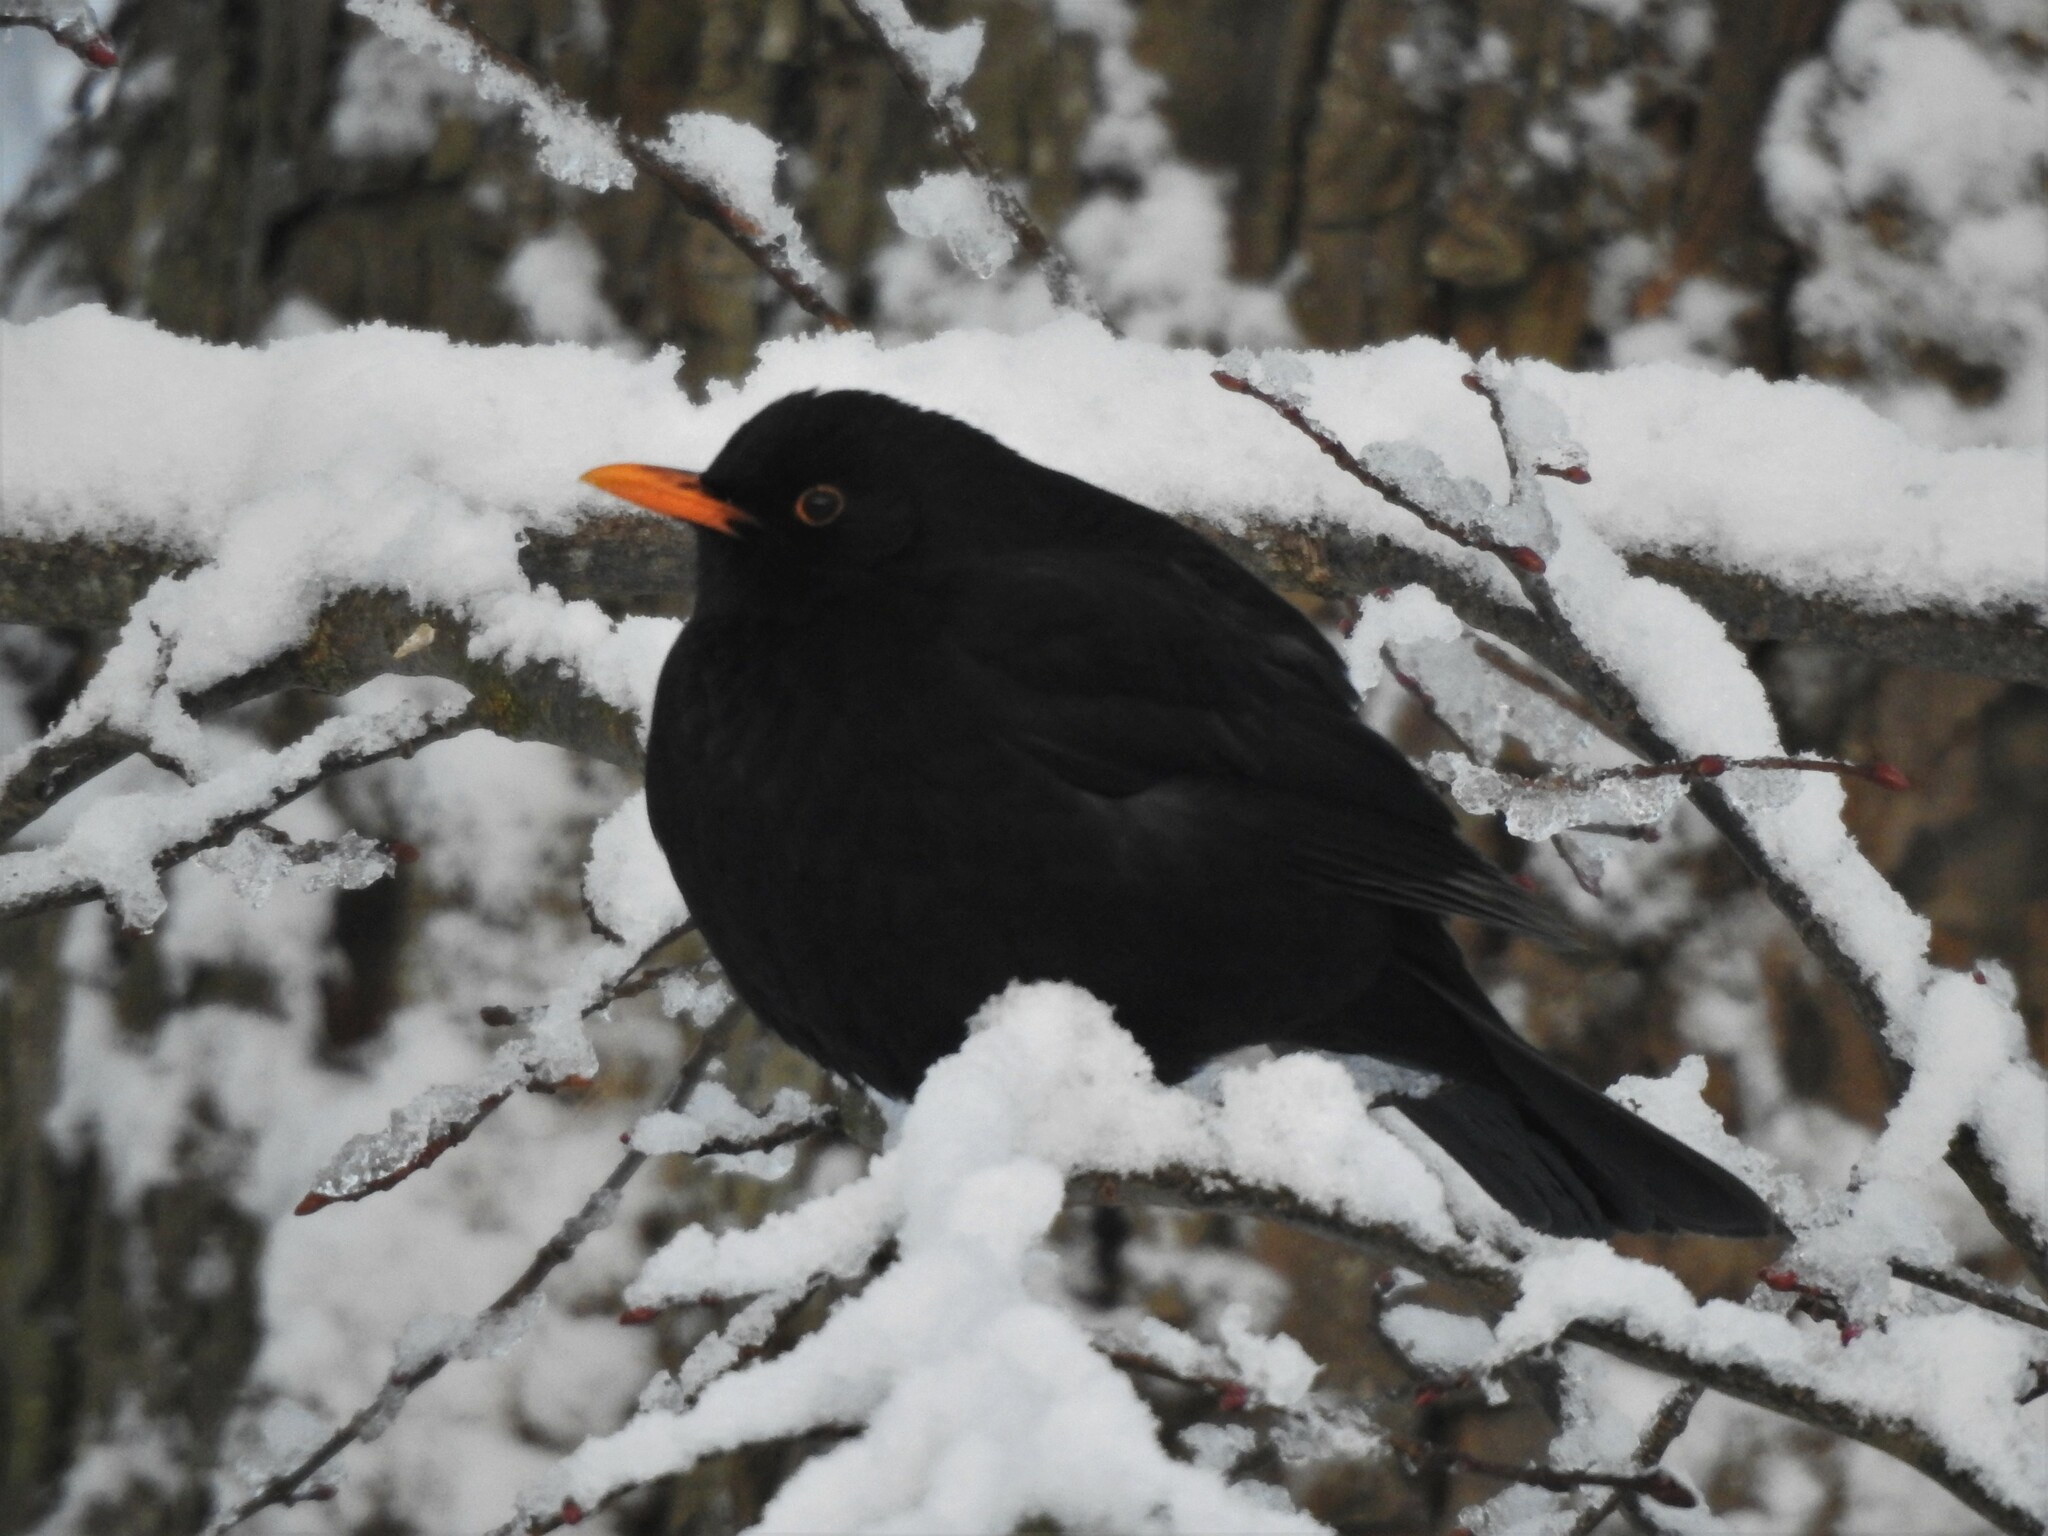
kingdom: Animalia
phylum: Chordata
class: Aves
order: Passeriformes
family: Turdidae
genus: Turdus
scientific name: Turdus merula
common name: Common blackbird
